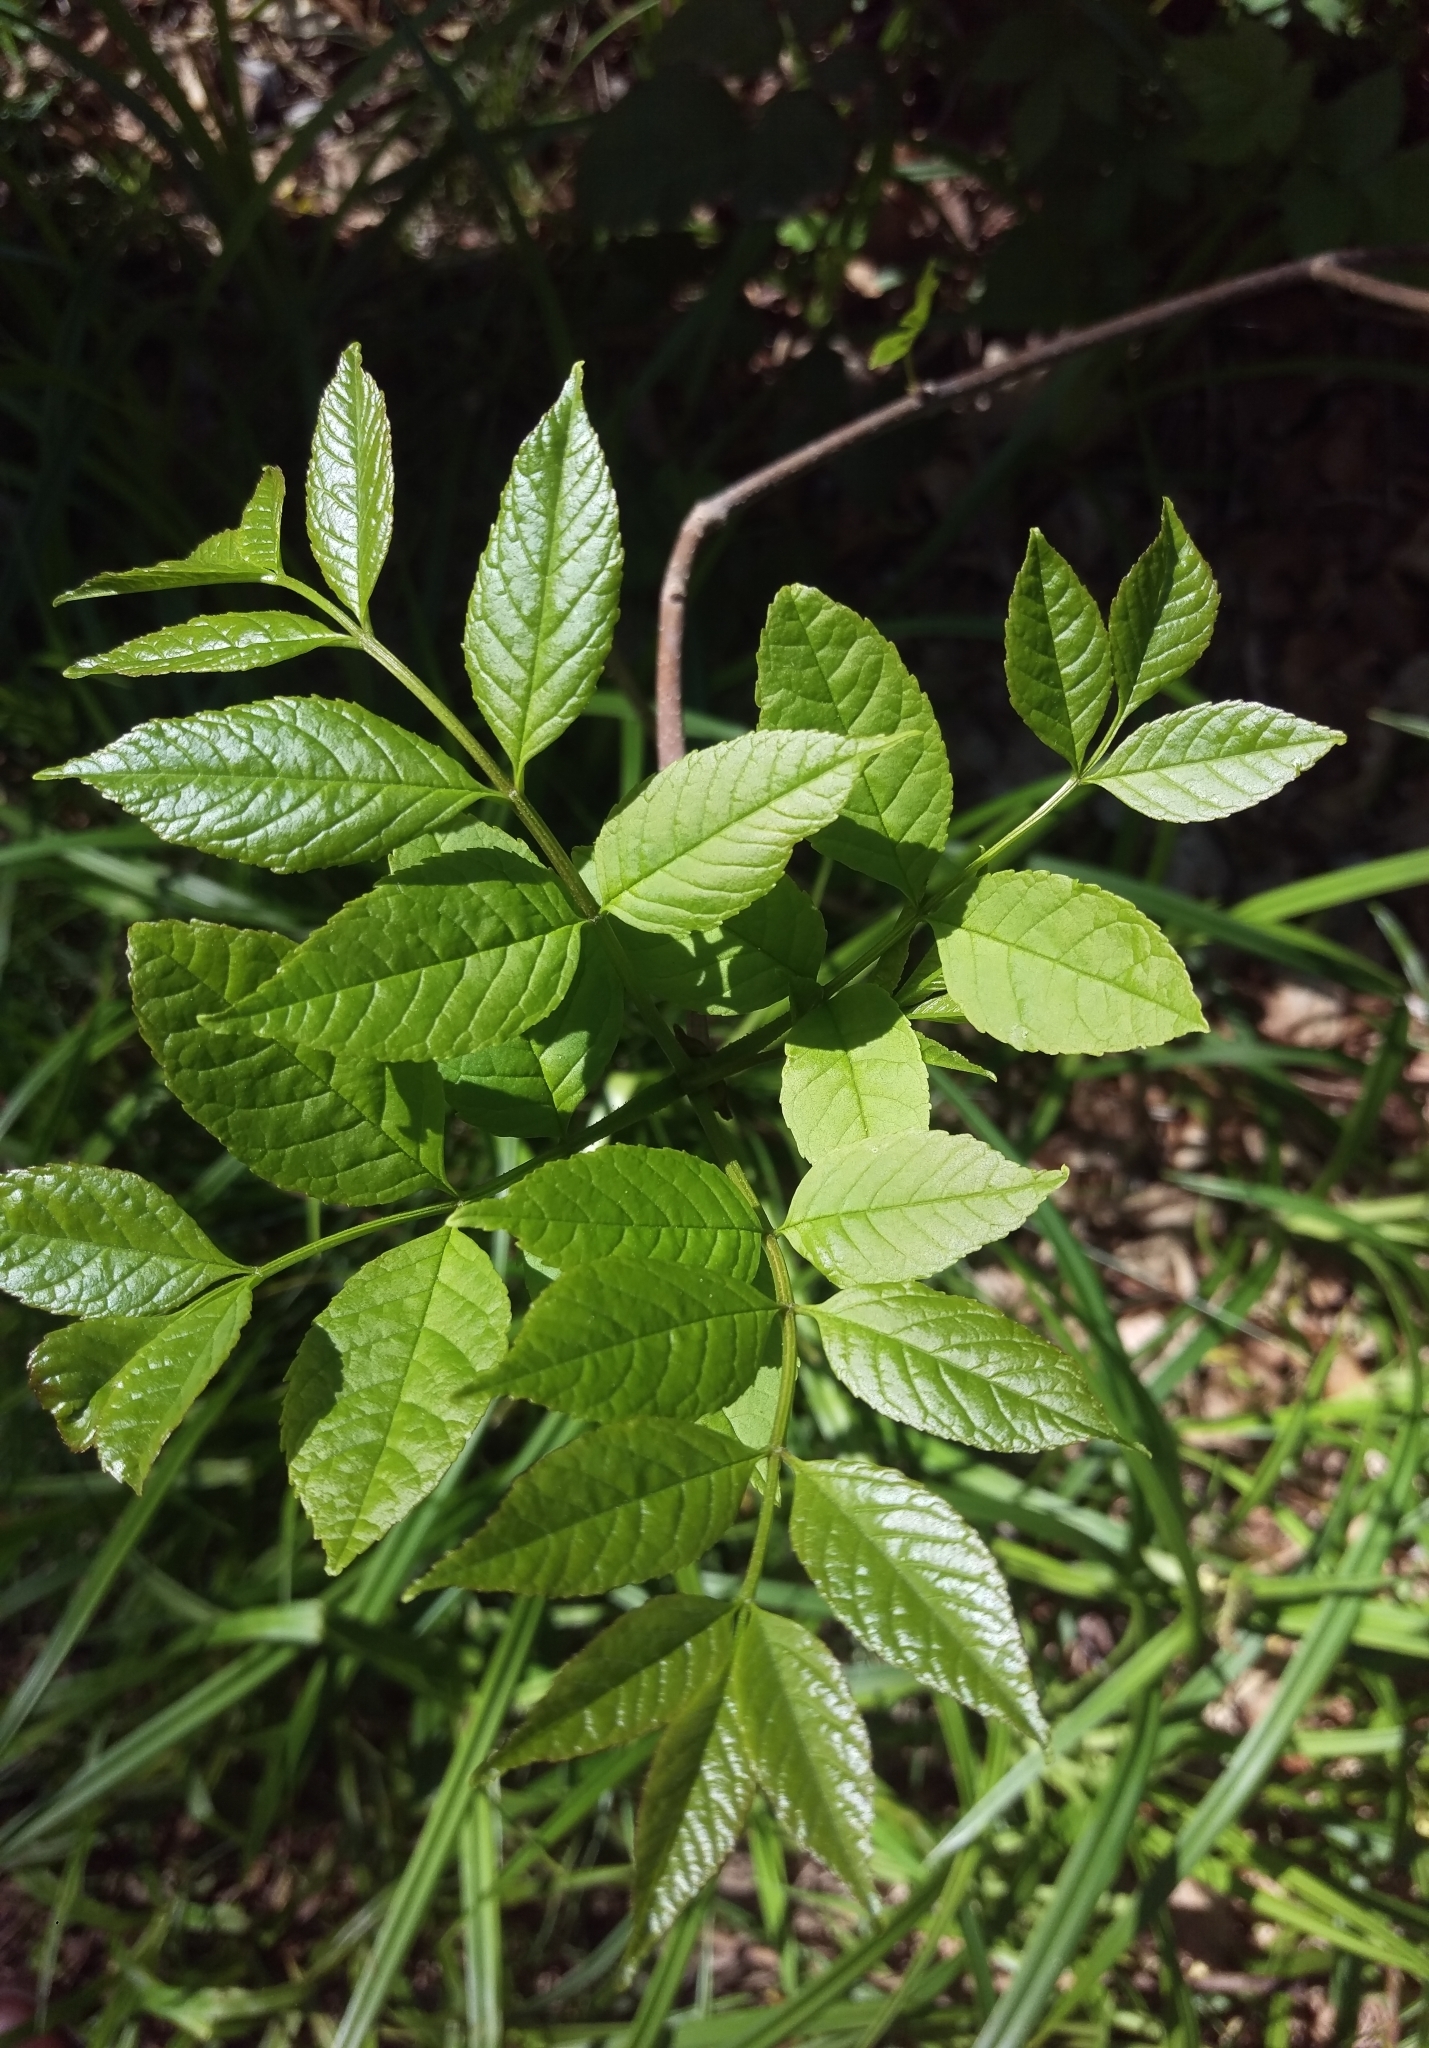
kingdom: Plantae
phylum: Tracheophyta
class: Magnoliopsida
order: Lamiales
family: Oleaceae
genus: Fraxinus
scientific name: Fraxinus excelsior
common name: European ash
